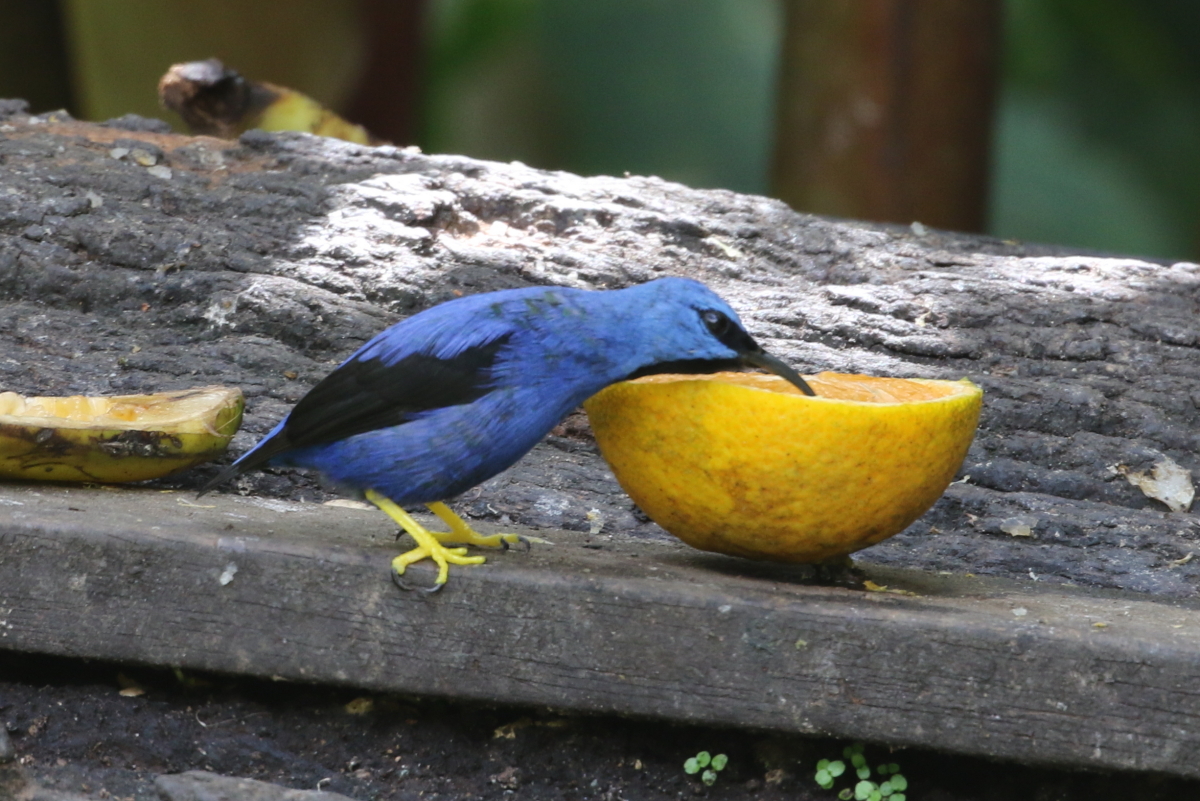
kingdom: Animalia
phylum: Chordata
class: Aves
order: Passeriformes
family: Thraupidae
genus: Cyanerpes
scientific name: Cyanerpes lucidus
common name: Shining honeycreeper
